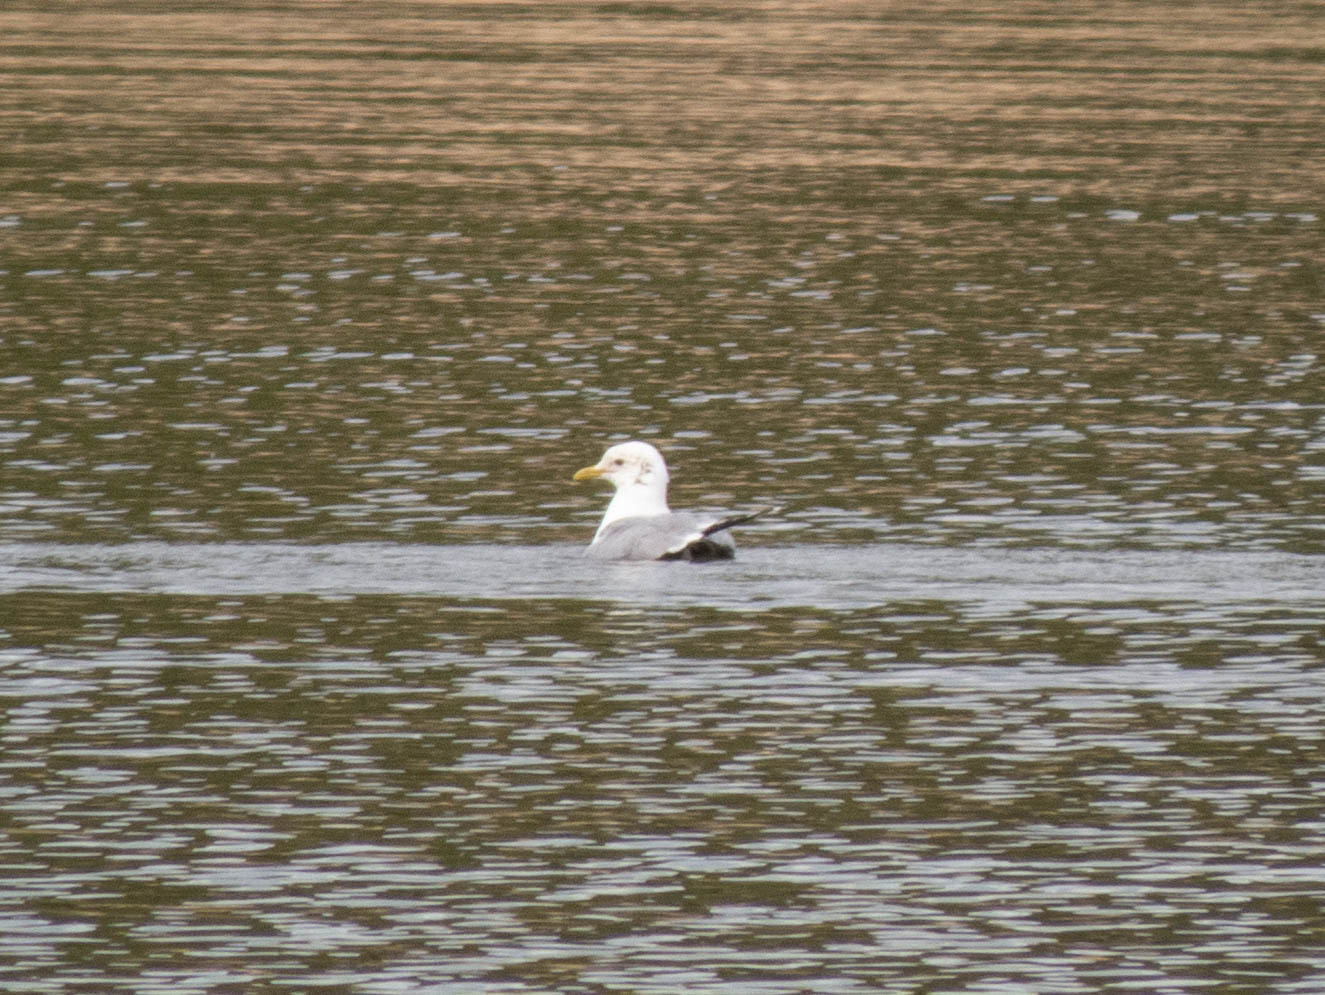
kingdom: Animalia
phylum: Chordata
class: Aves
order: Charadriiformes
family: Laridae
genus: Larus
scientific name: Larus canus
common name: Mew gull
